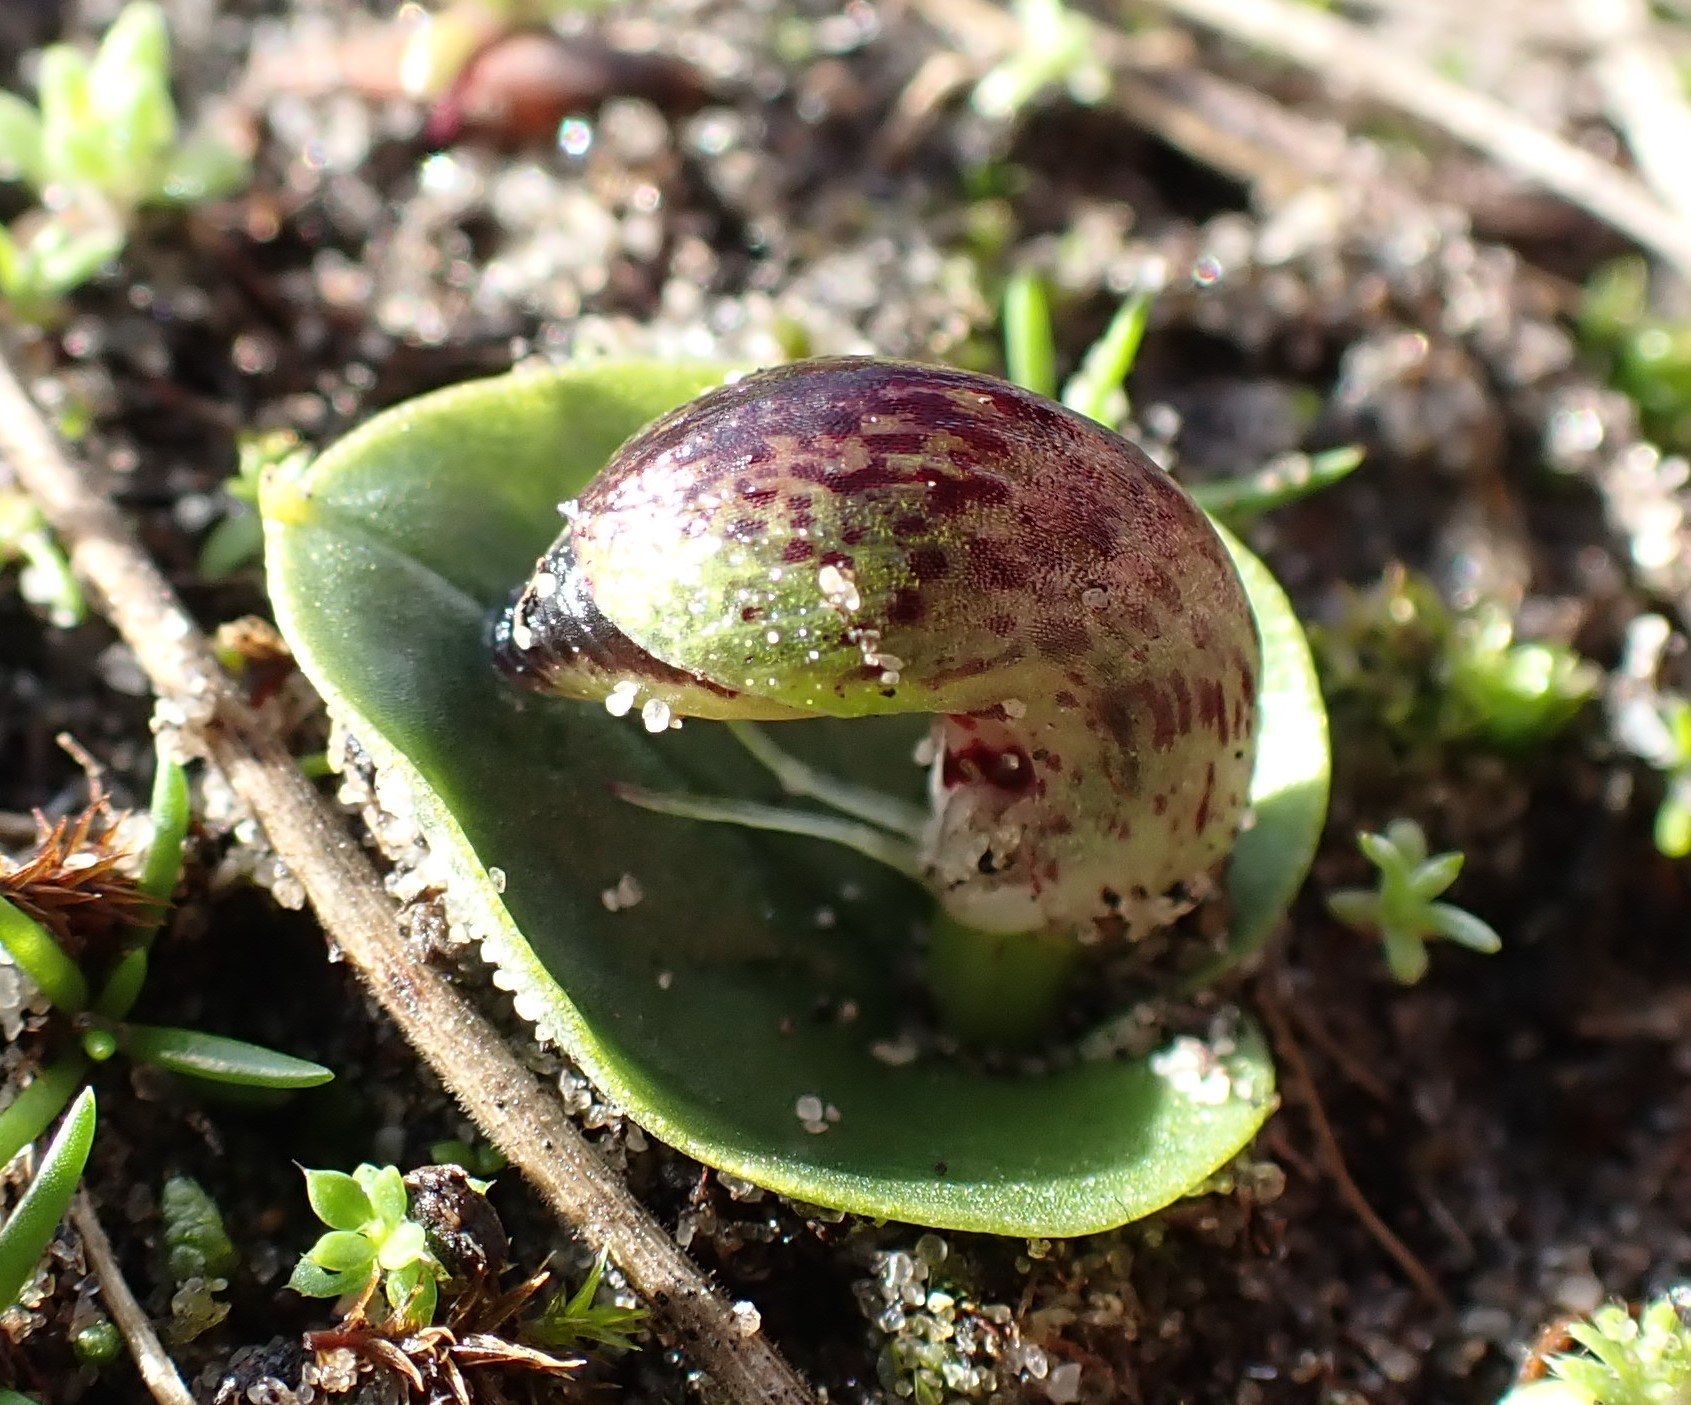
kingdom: Plantae
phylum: Tracheophyta
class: Liliopsida
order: Asparagales
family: Orchidaceae
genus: Corybas
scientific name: Corybas incurvus
